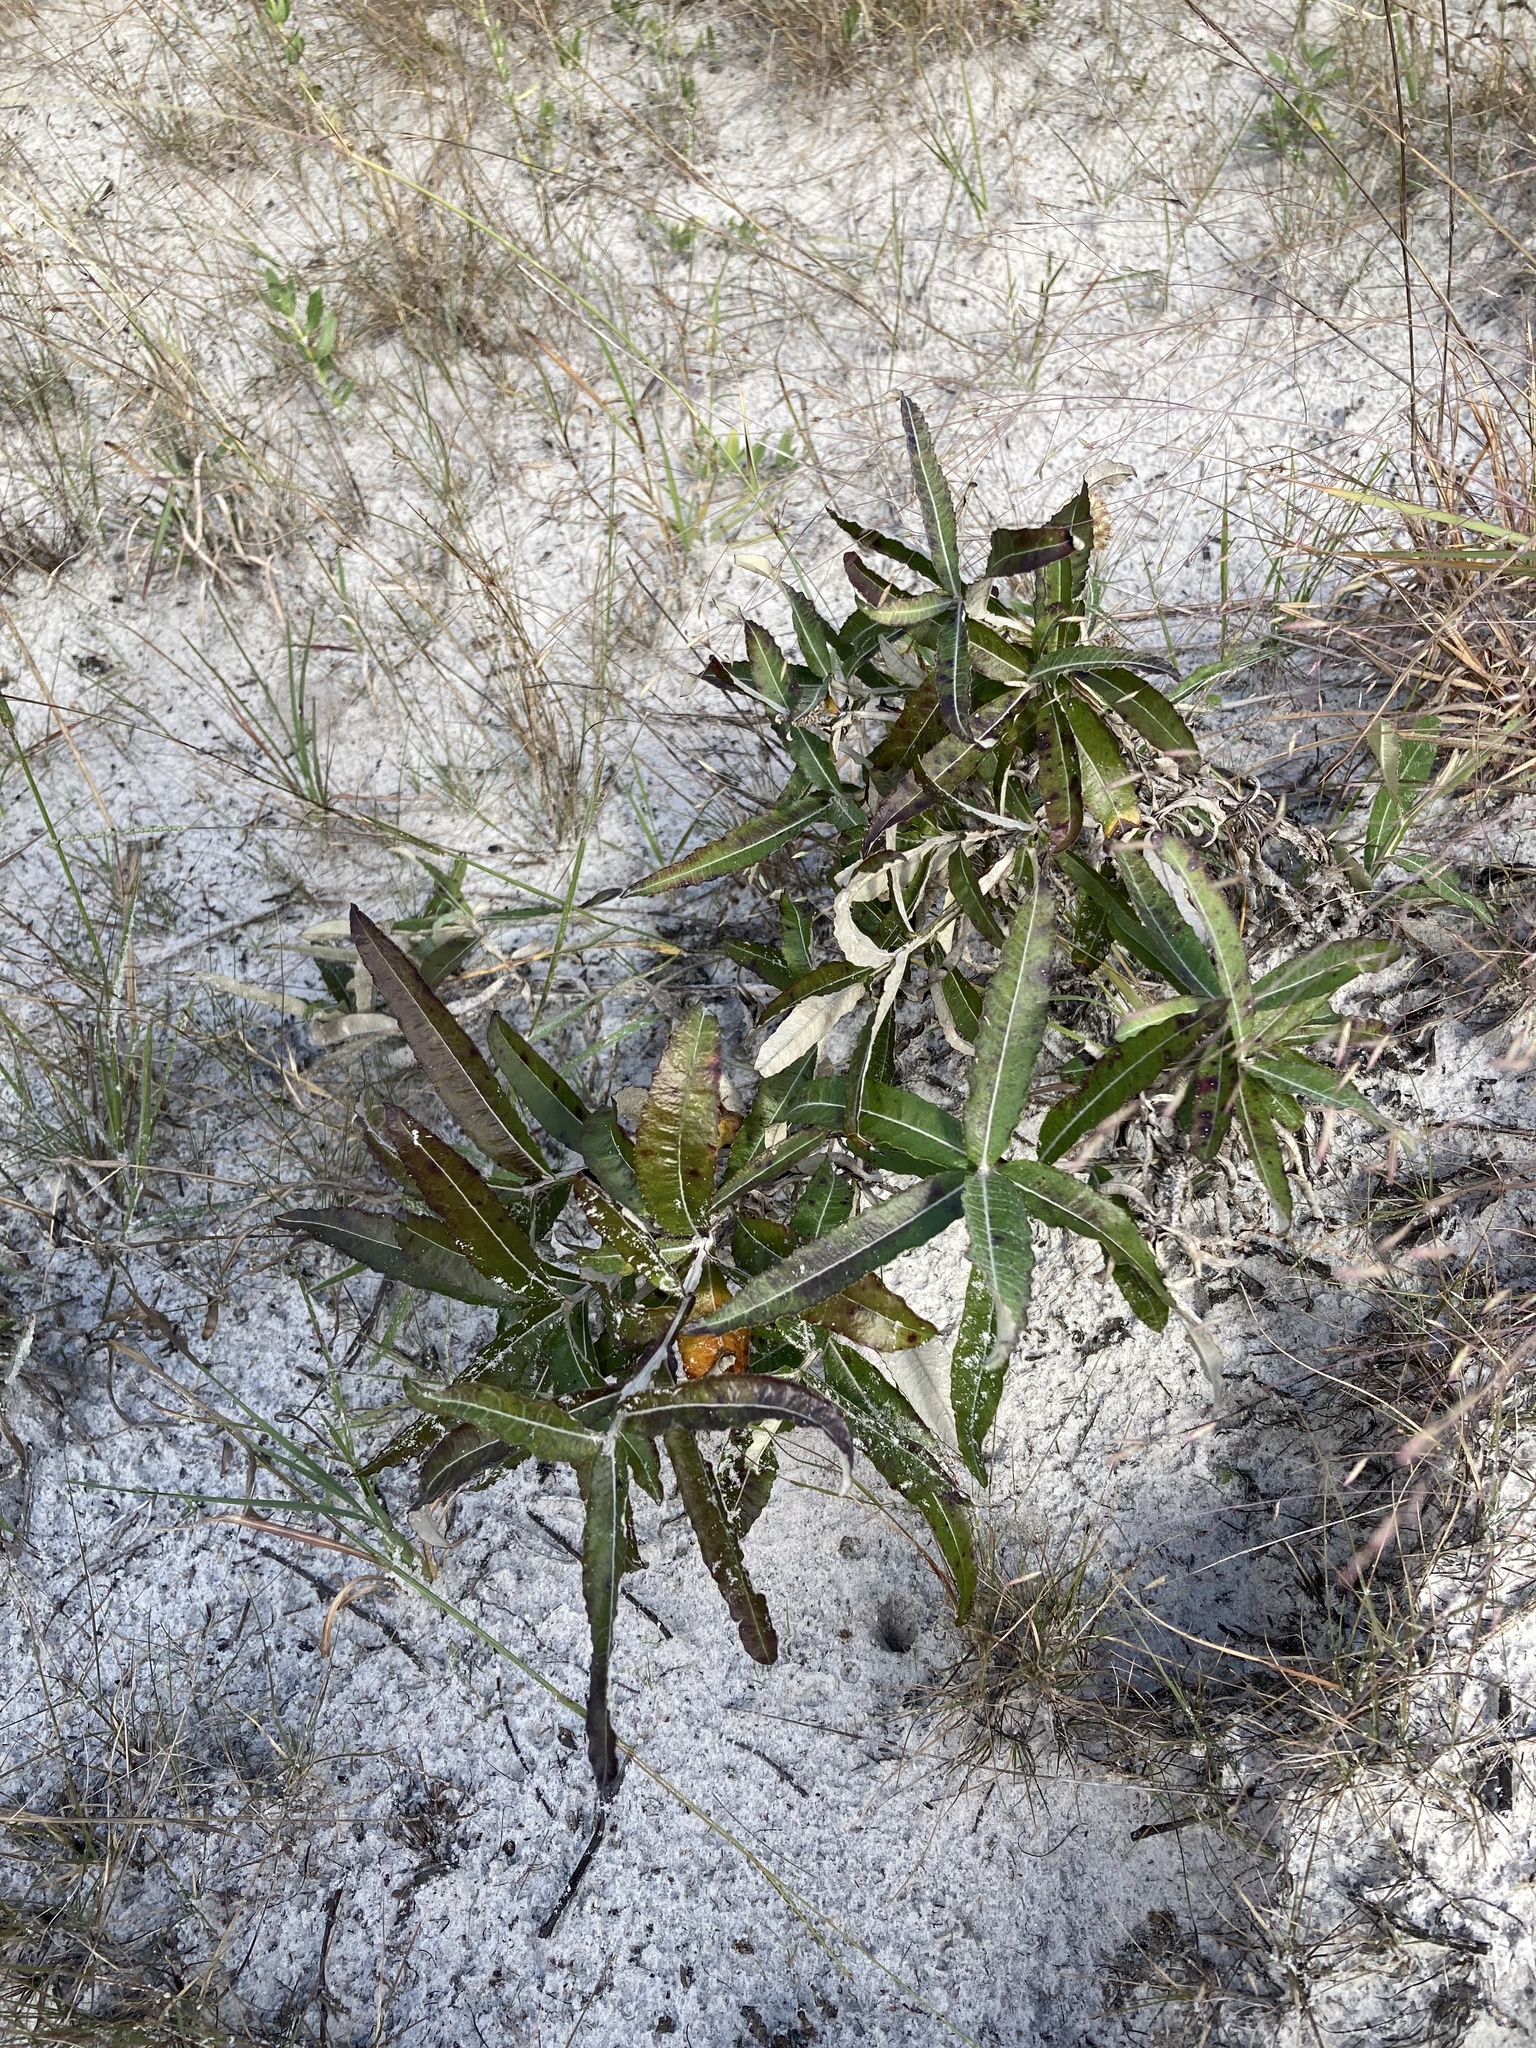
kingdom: Plantae
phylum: Tracheophyta
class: Magnoliopsida
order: Asterales
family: Asteraceae
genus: Pterocaulon
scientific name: Pterocaulon pycnostachyum
